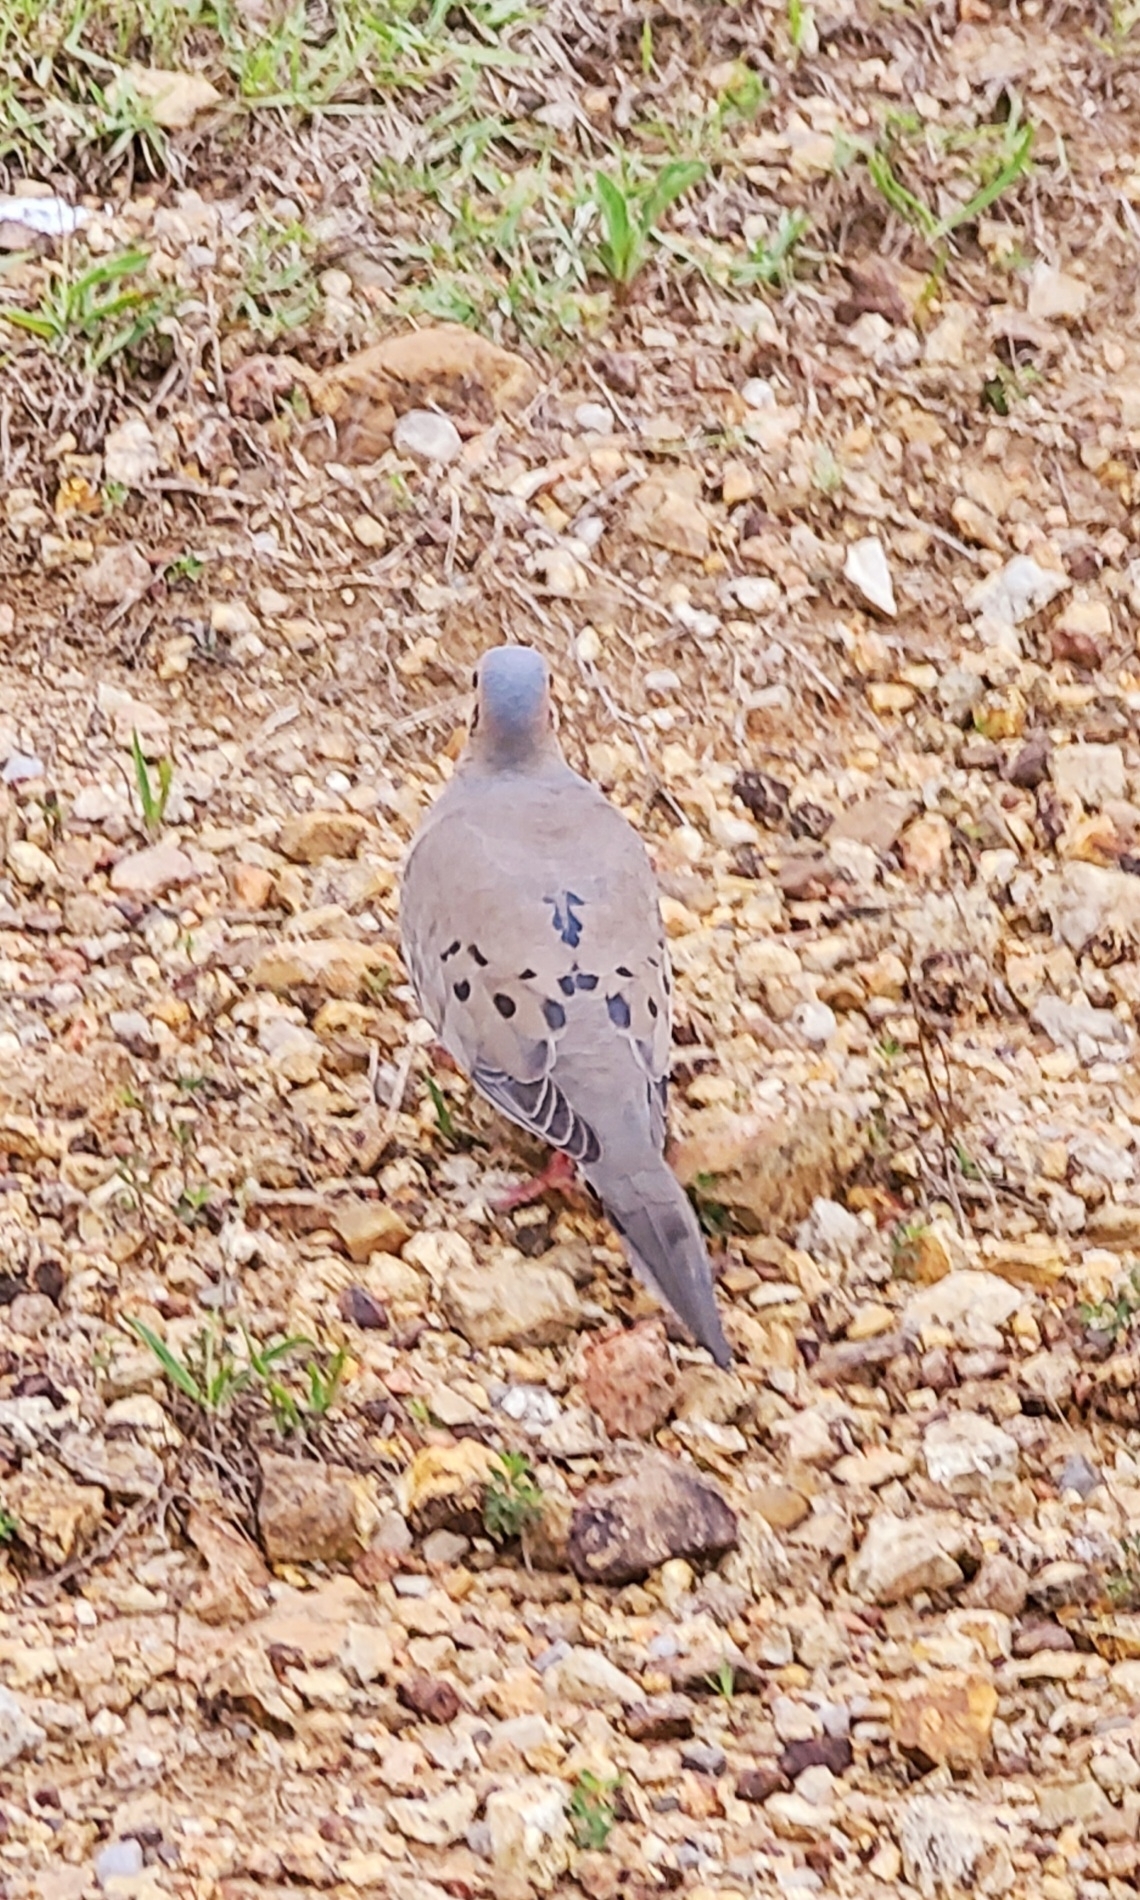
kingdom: Animalia
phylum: Chordata
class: Aves
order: Columbiformes
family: Columbidae
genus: Zenaida
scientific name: Zenaida macroura
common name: Mourning dove
